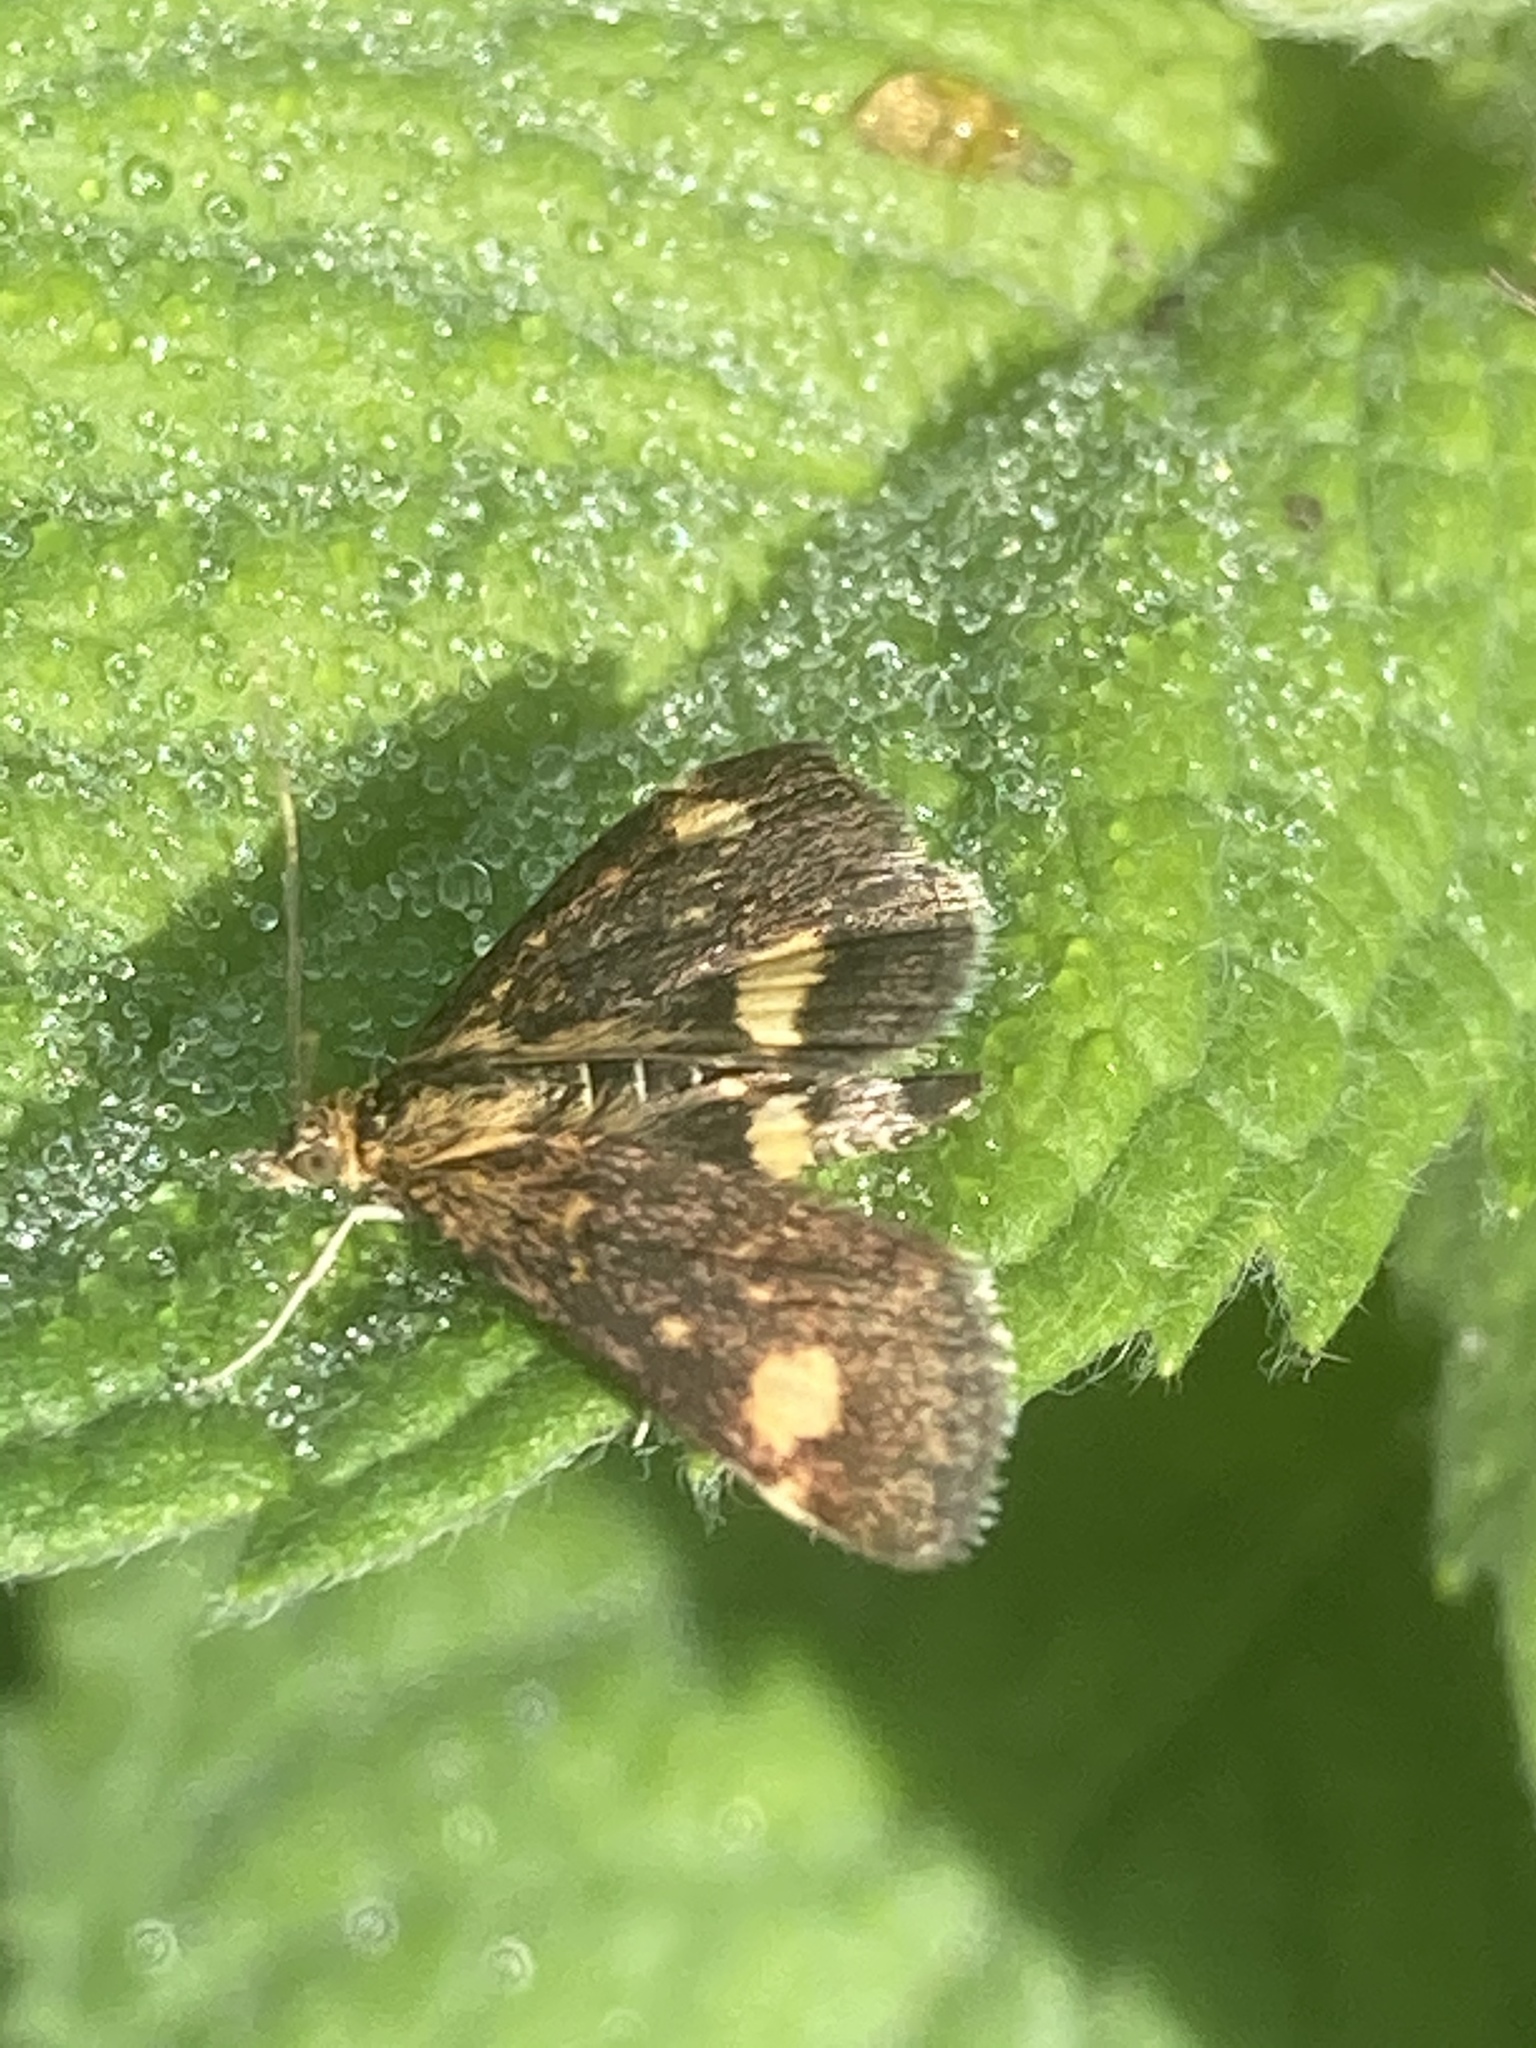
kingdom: Animalia
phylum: Arthropoda
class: Insecta
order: Lepidoptera
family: Crambidae
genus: Pyrausta
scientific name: Pyrausta aurata
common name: Small purple & gold
